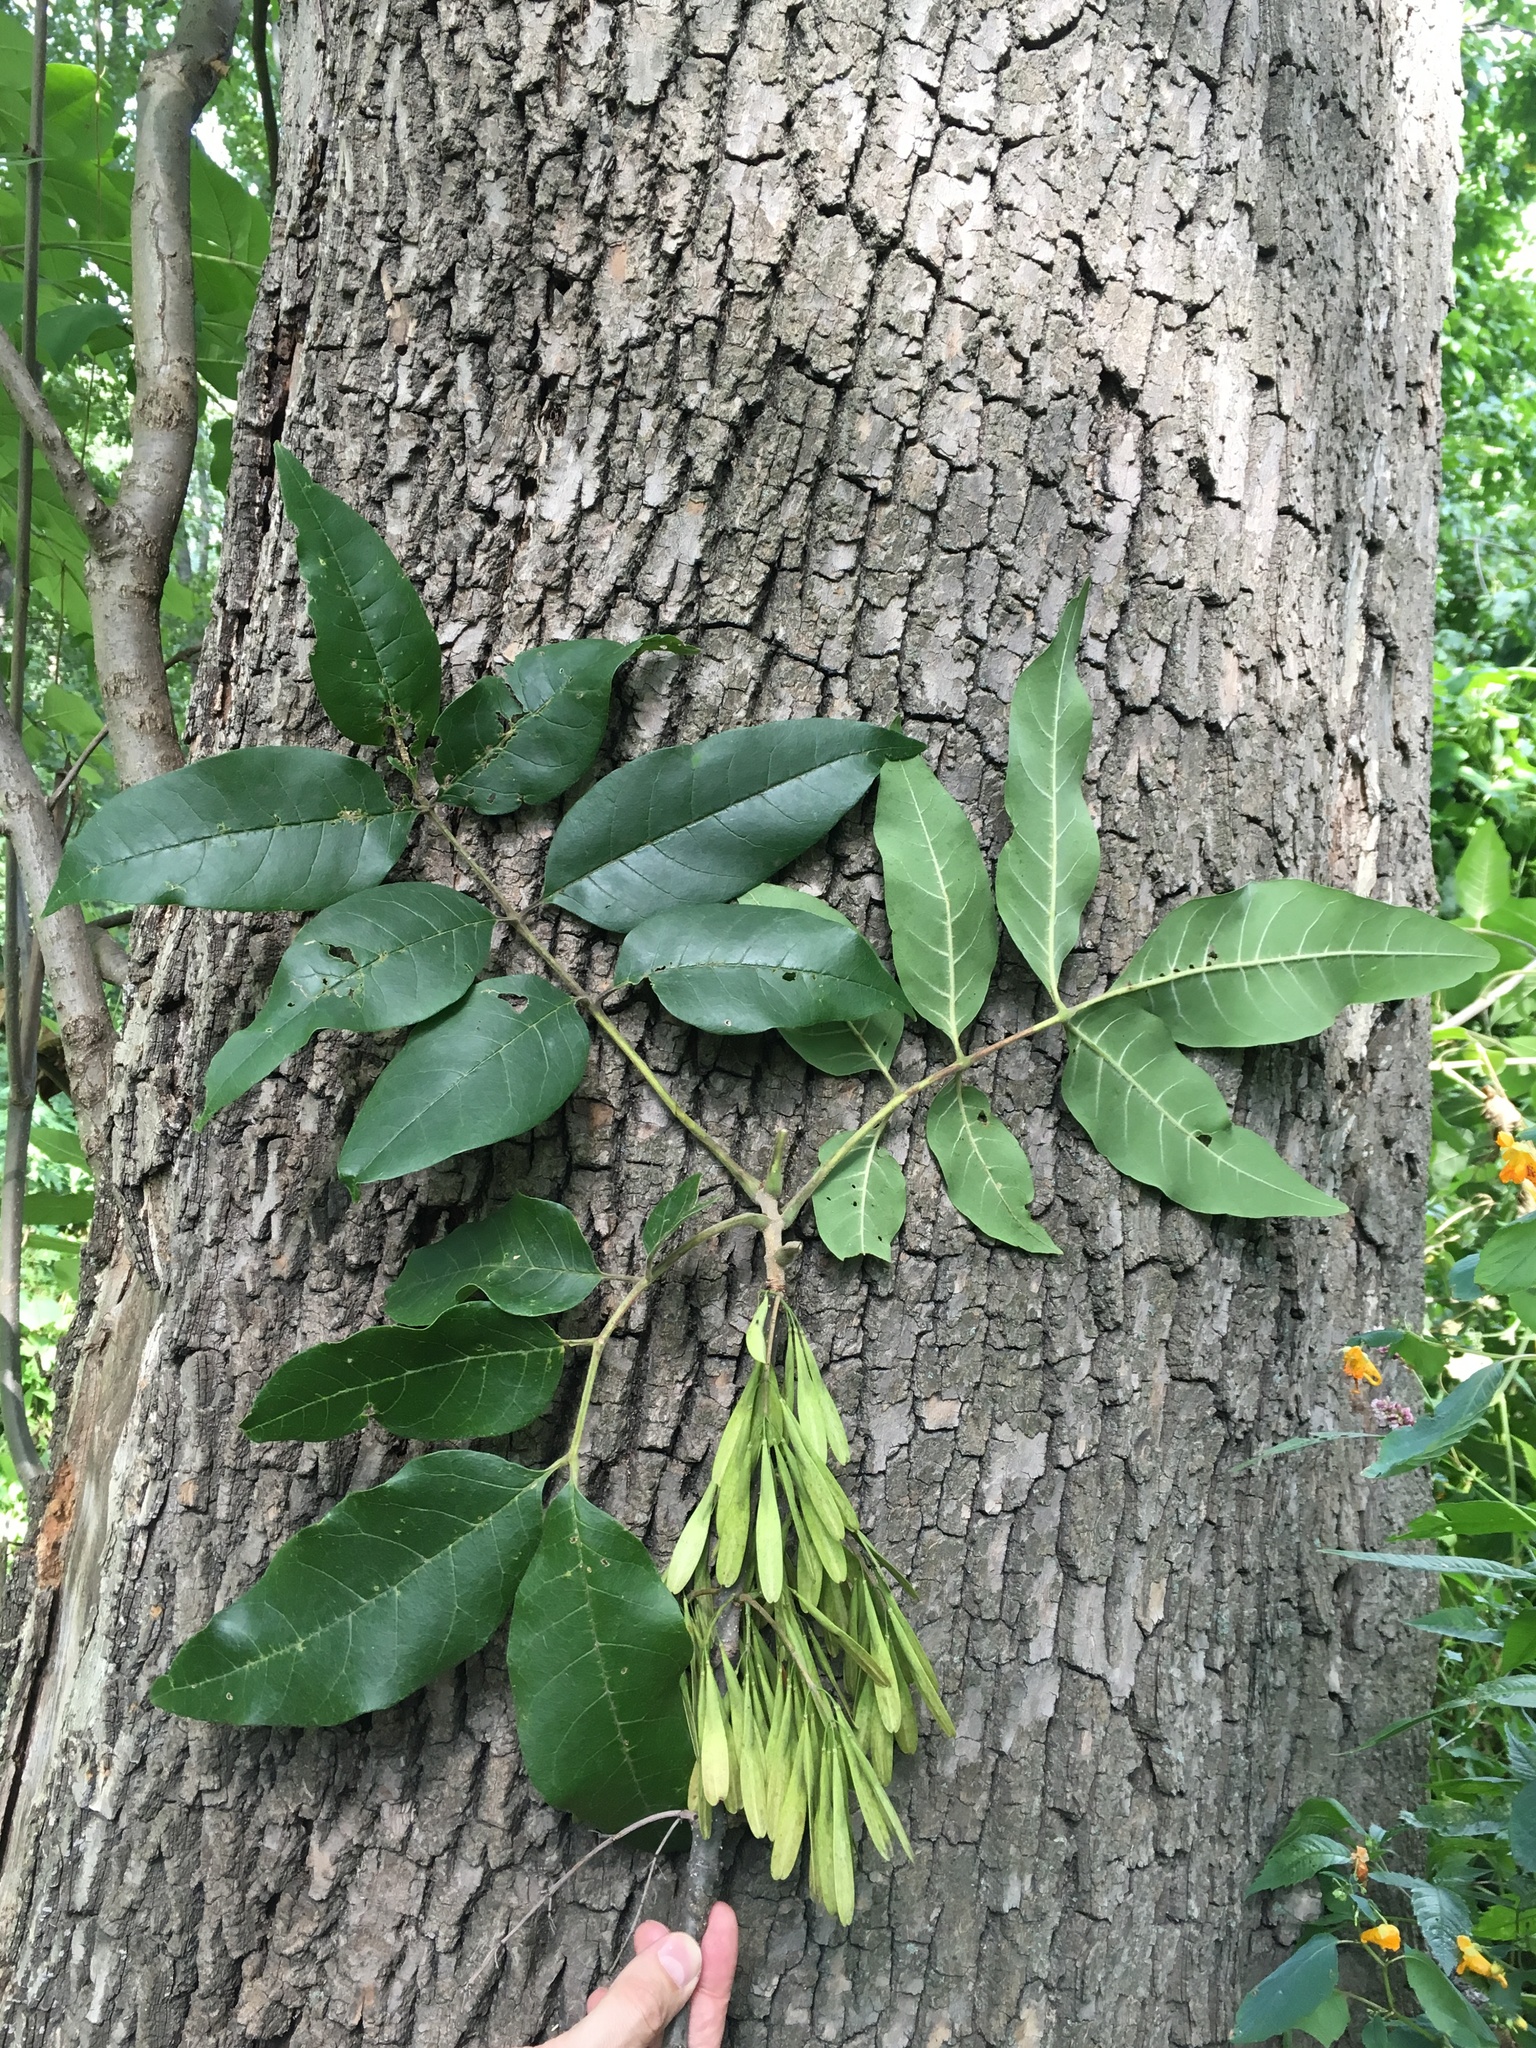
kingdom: Plantae
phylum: Tracheophyta
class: Magnoliopsida
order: Lamiales
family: Oleaceae
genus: Fraxinus
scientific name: Fraxinus profunda
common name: Pumpkin ash
